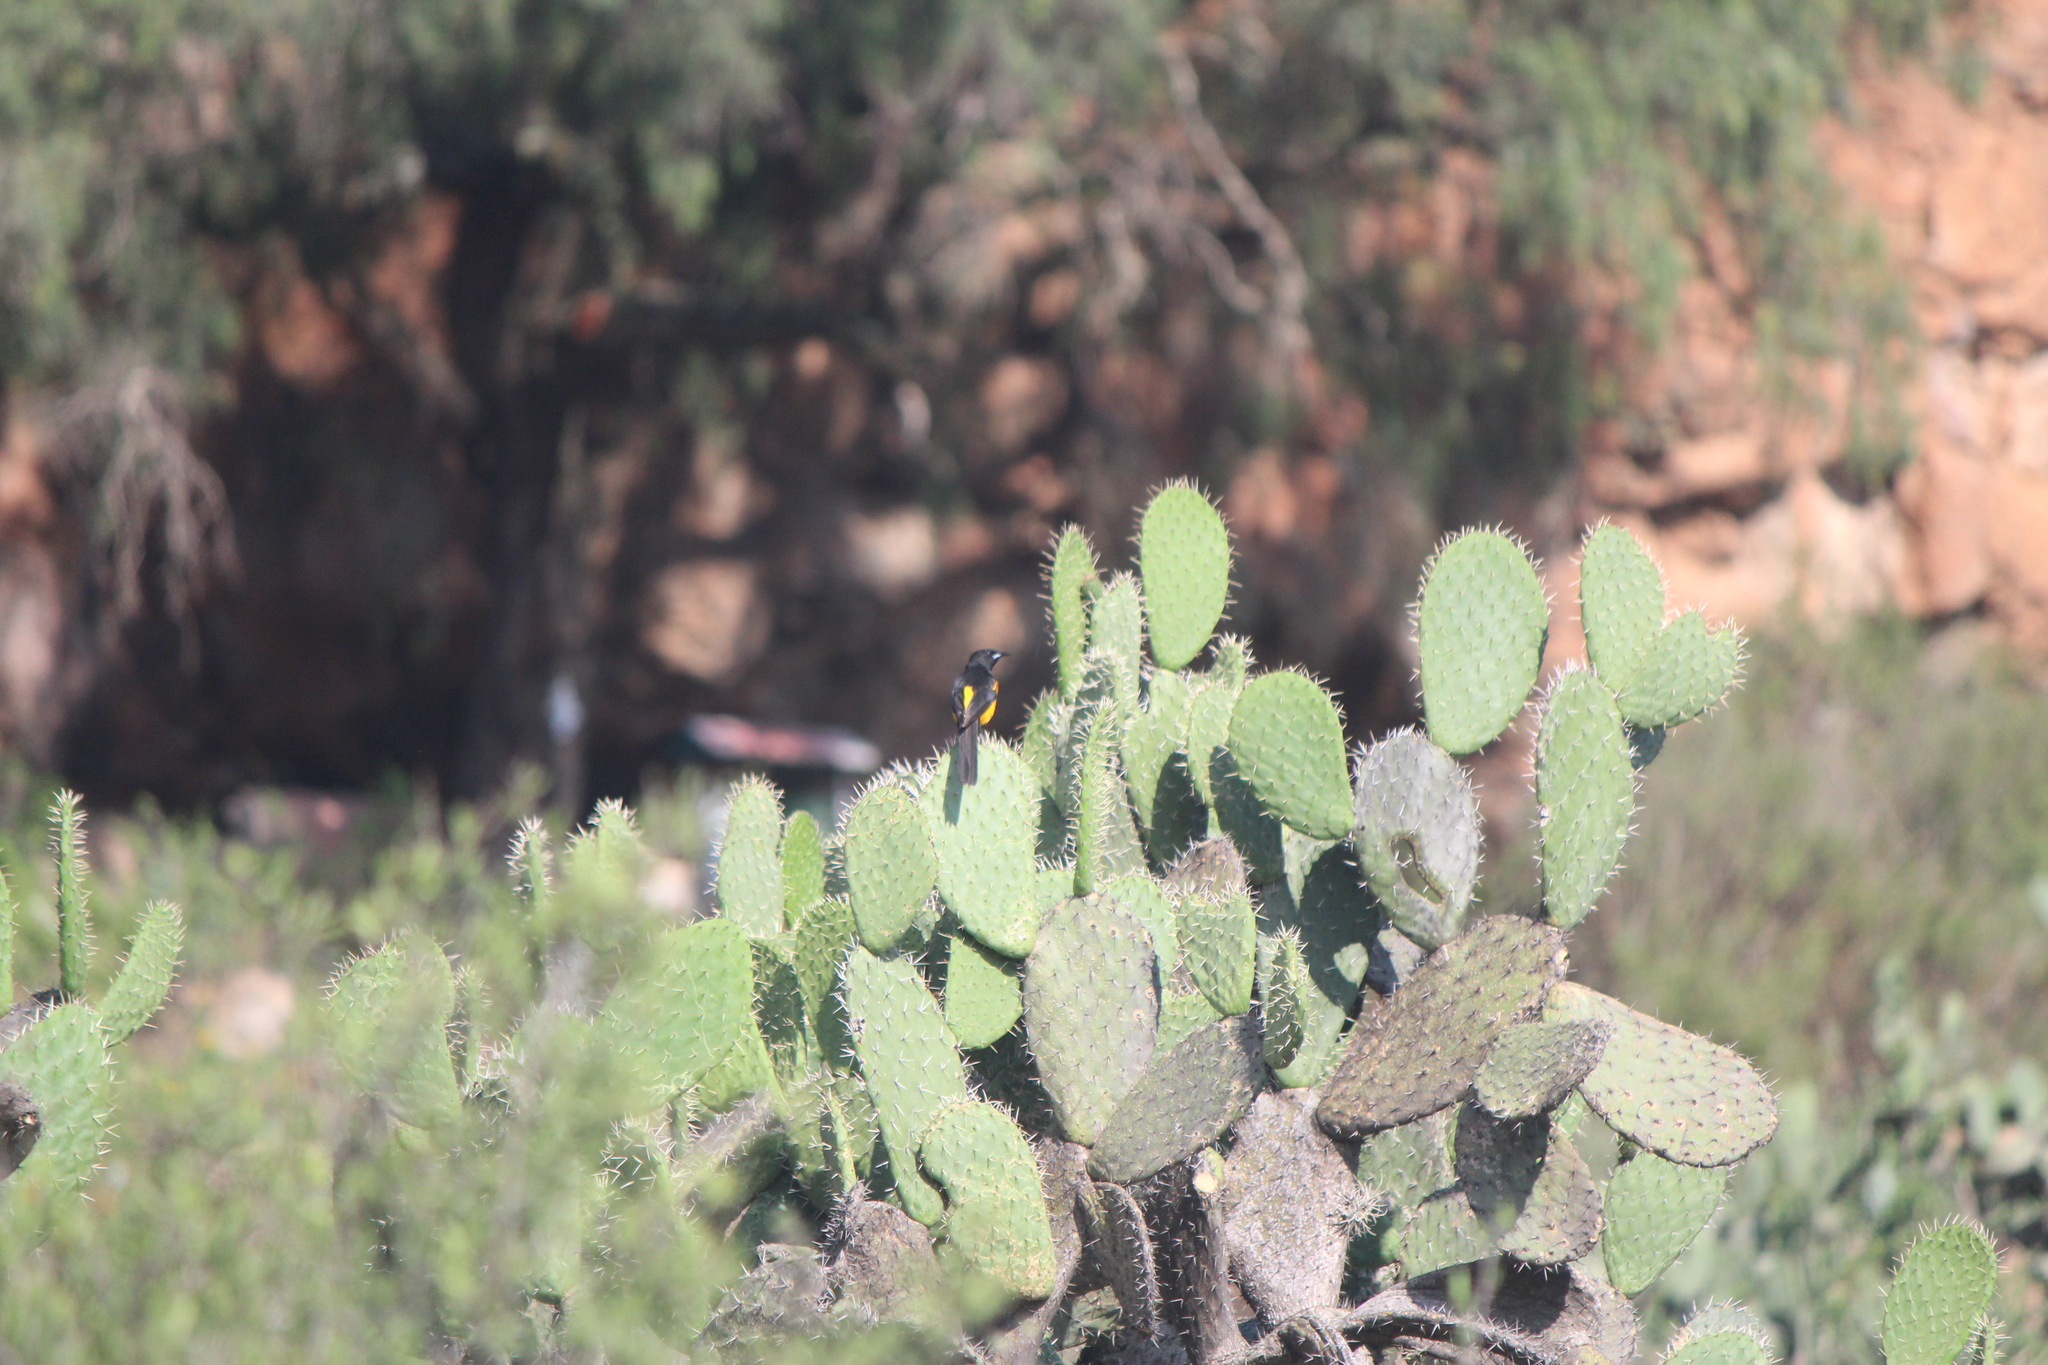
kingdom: Animalia
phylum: Chordata
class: Aves
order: Passeriformes
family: Icteridae
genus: Icterus
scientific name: Icterus wagleri
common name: Black-vented oriole
